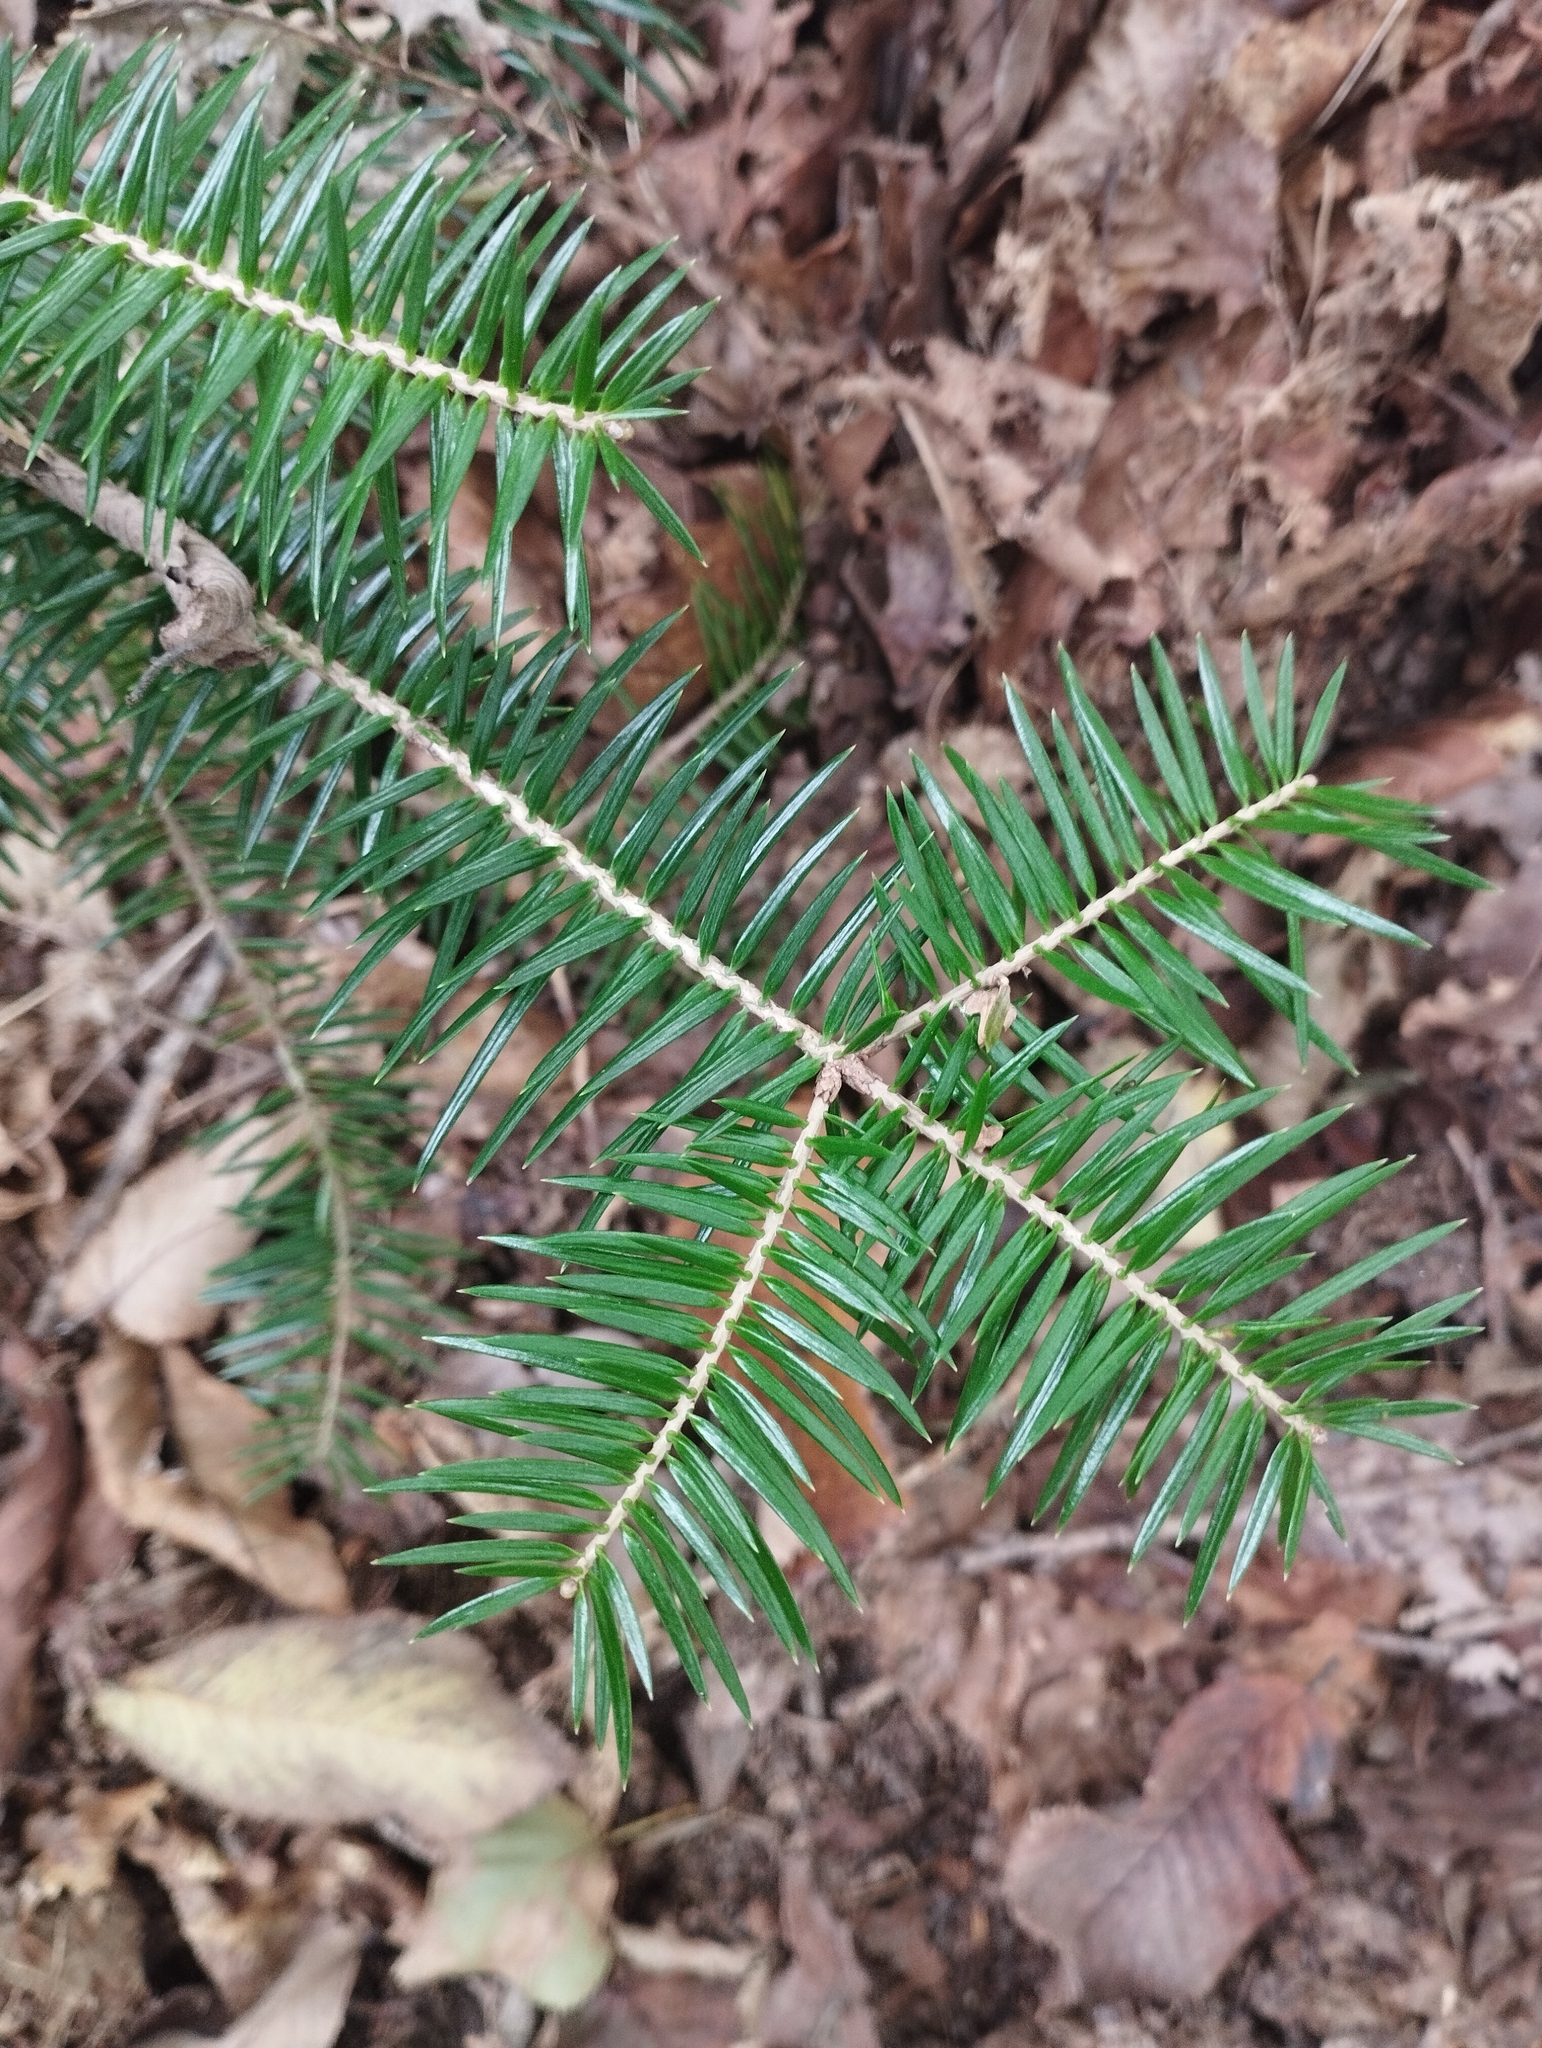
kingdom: Plantae
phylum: Tracheophyta
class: Pinopsida
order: Pinales
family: Pinaceae
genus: Abies
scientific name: Abies holophylla
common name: Manchurian fir
